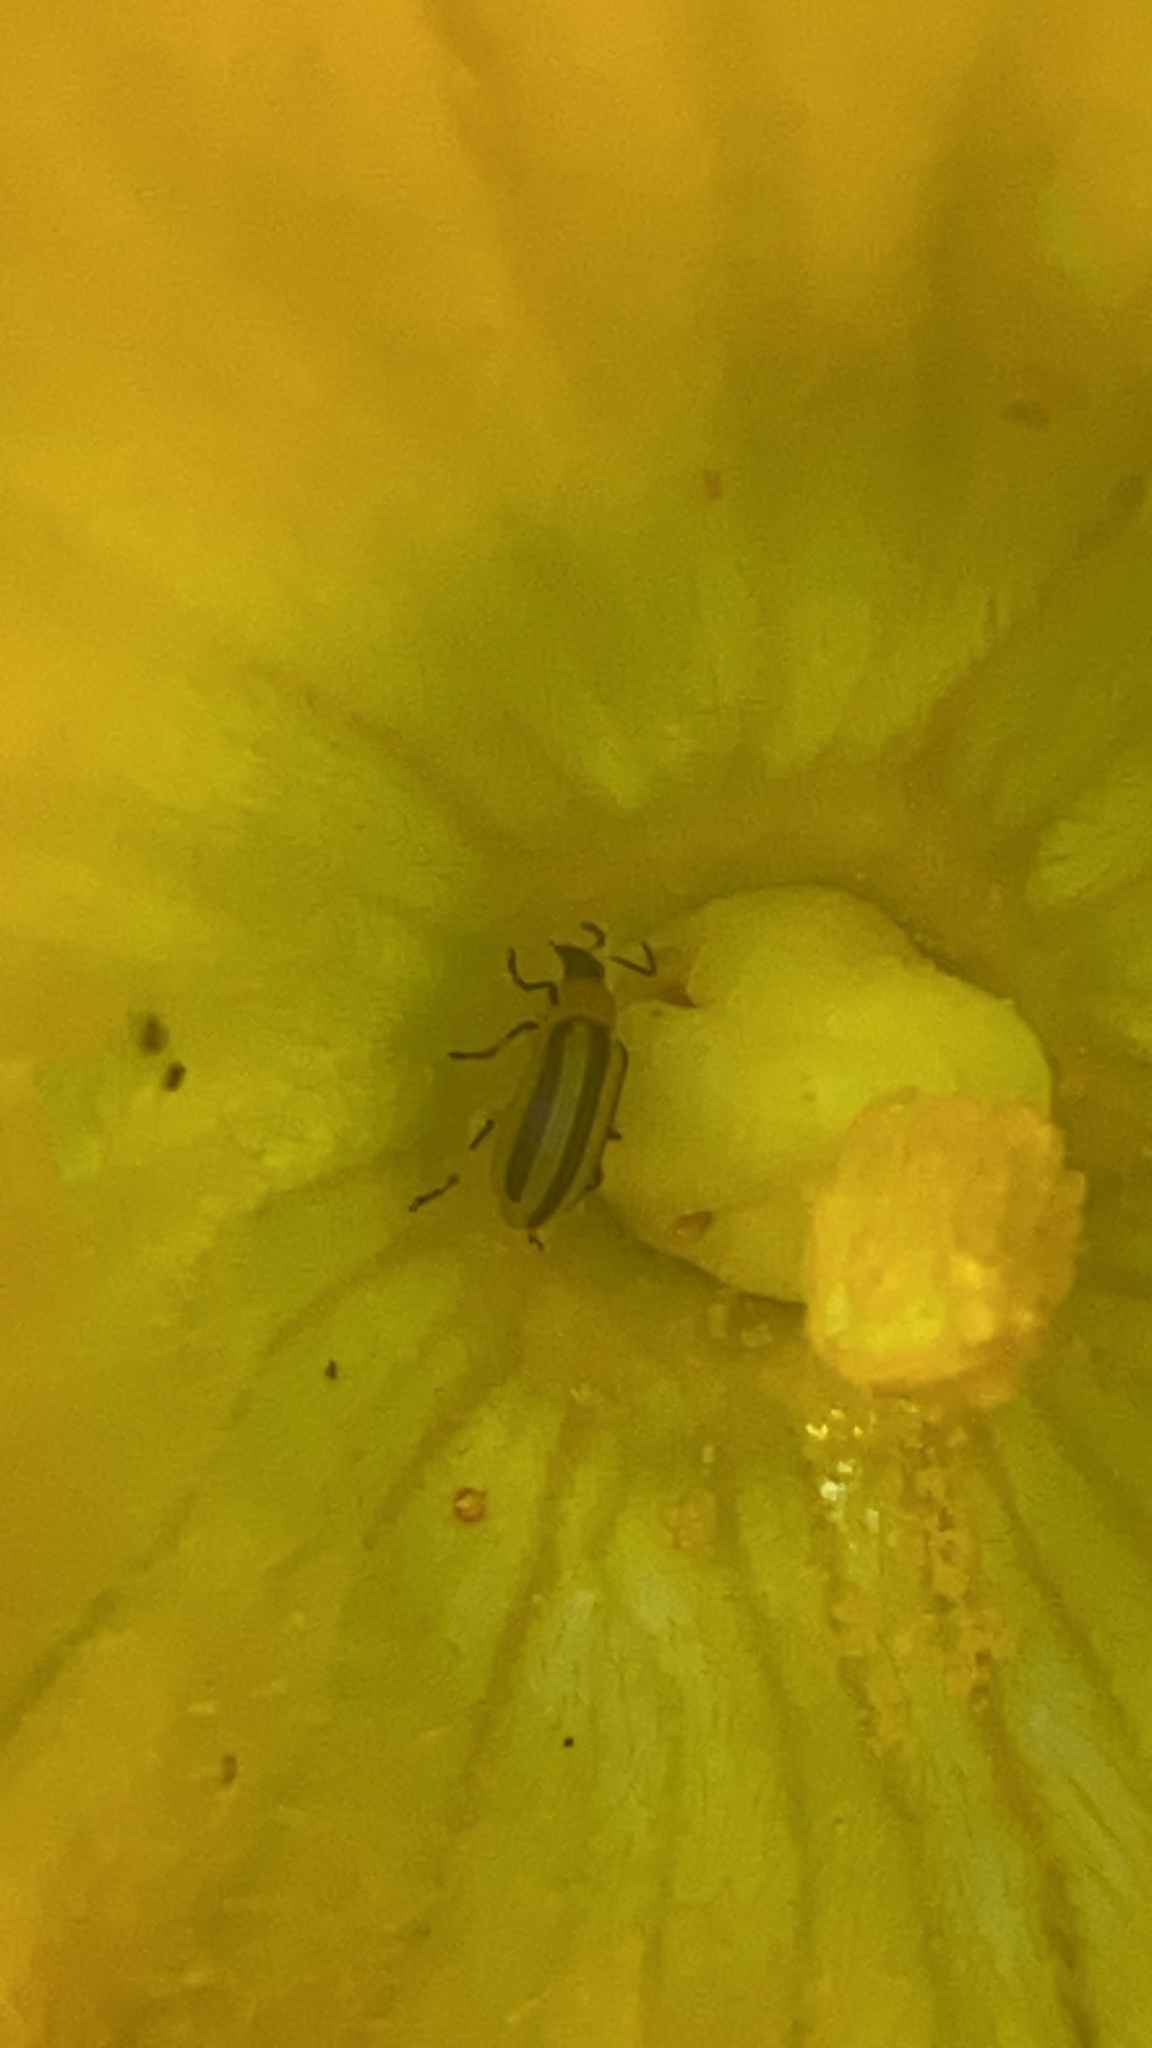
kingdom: Animalia
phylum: Arthropoda
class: Insecta
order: Coleoptera
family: Chrysomelidae
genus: Acalymma
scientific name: Acalymma vittatum
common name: Striped cucumber beetle
